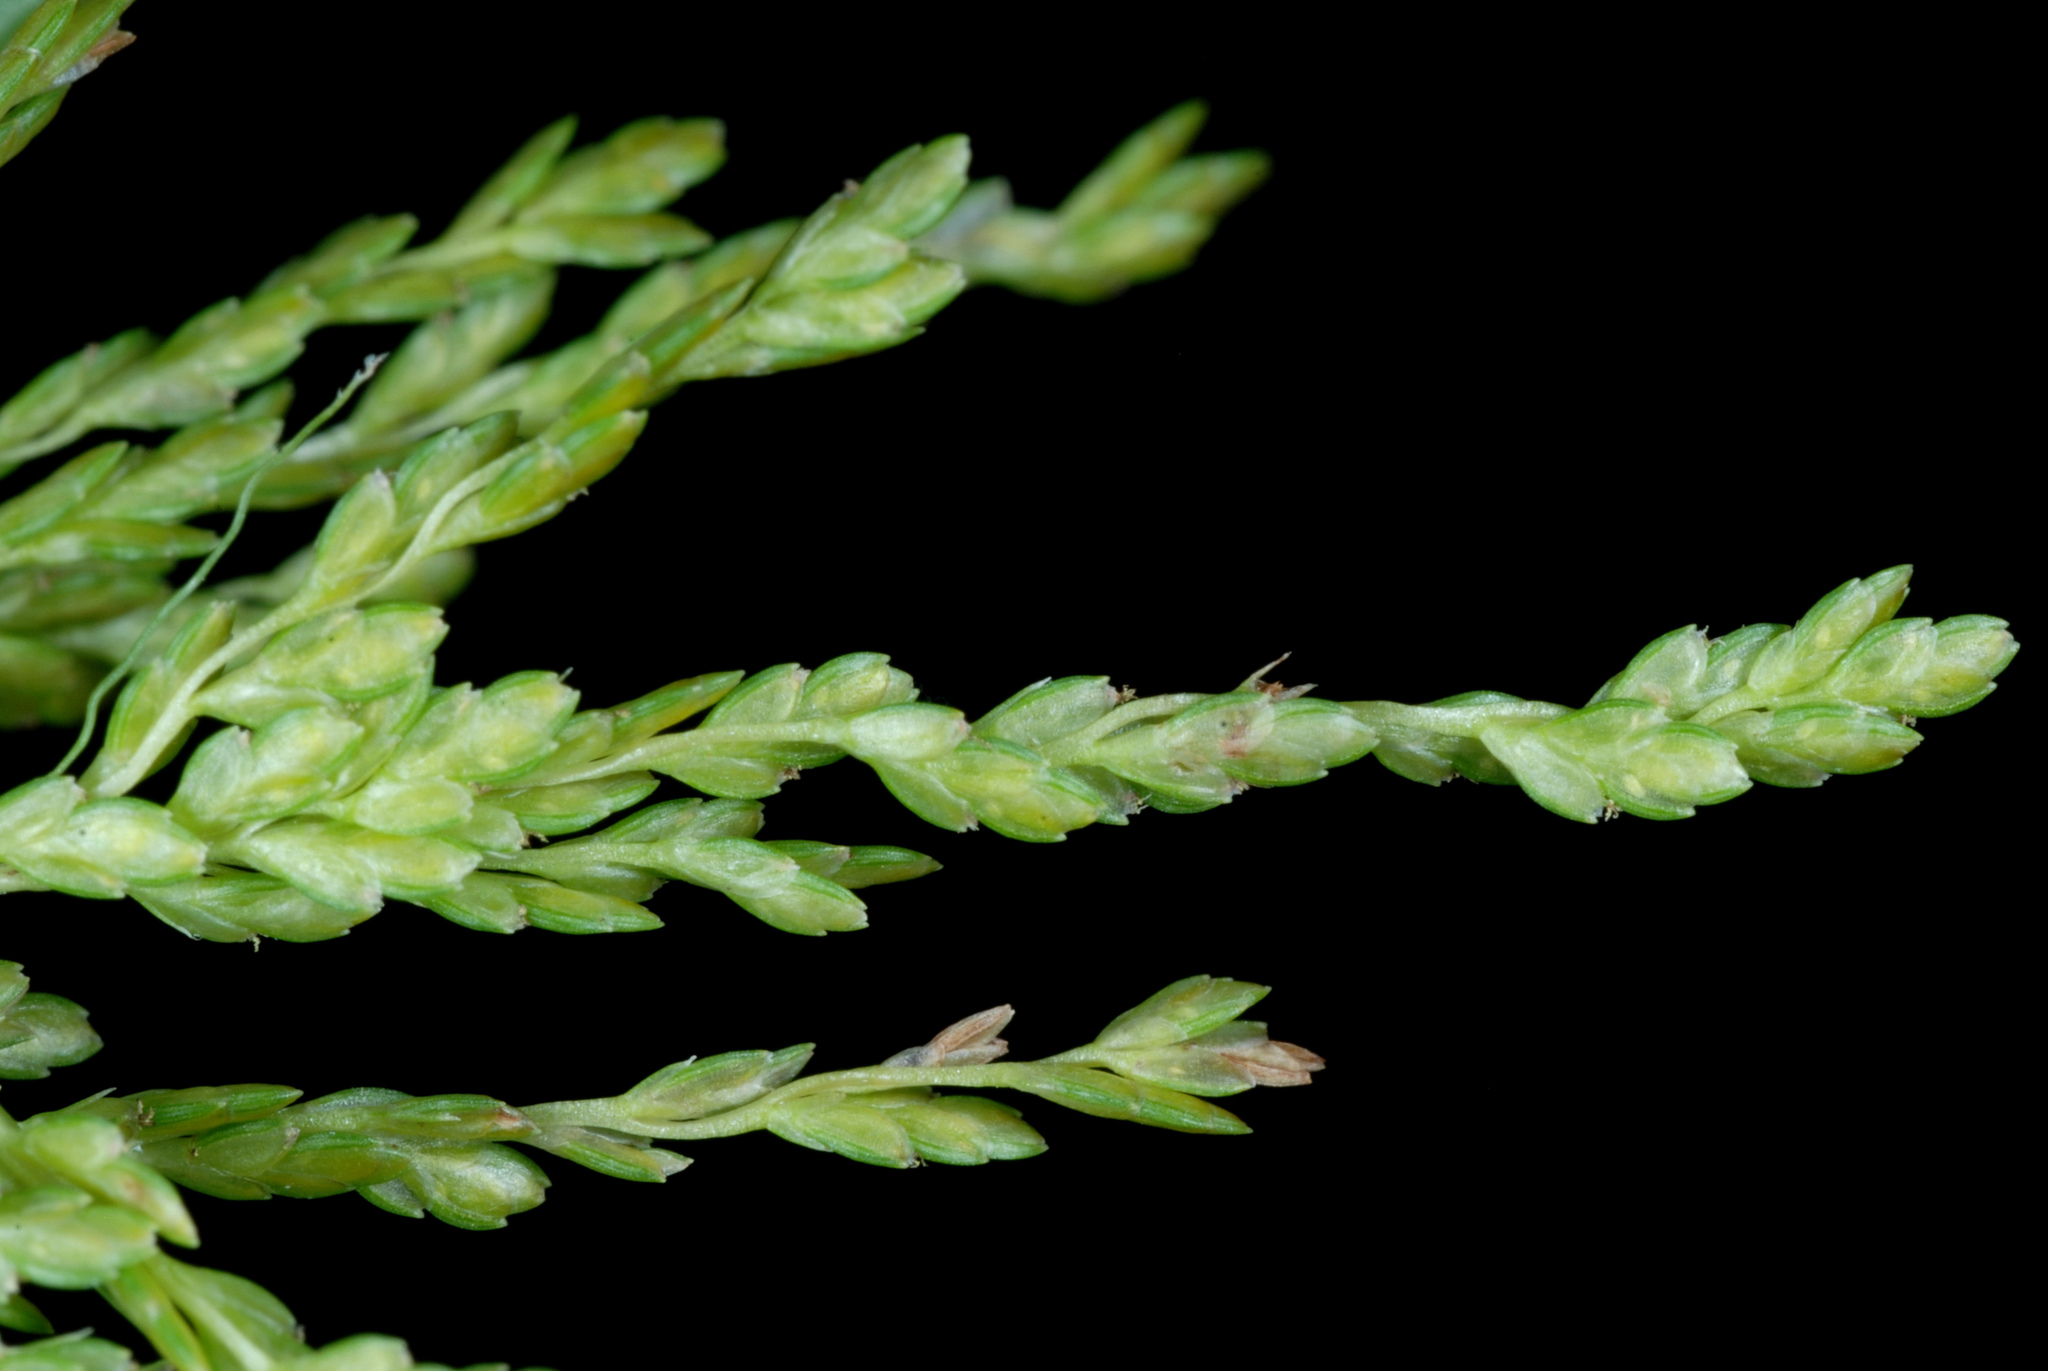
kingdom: Plantae
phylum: Tracheophyta
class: Liliopsida
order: Poales
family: Cyperaceae
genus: Cyperus
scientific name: Cyperus iria
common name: Ricefield flatsedge
